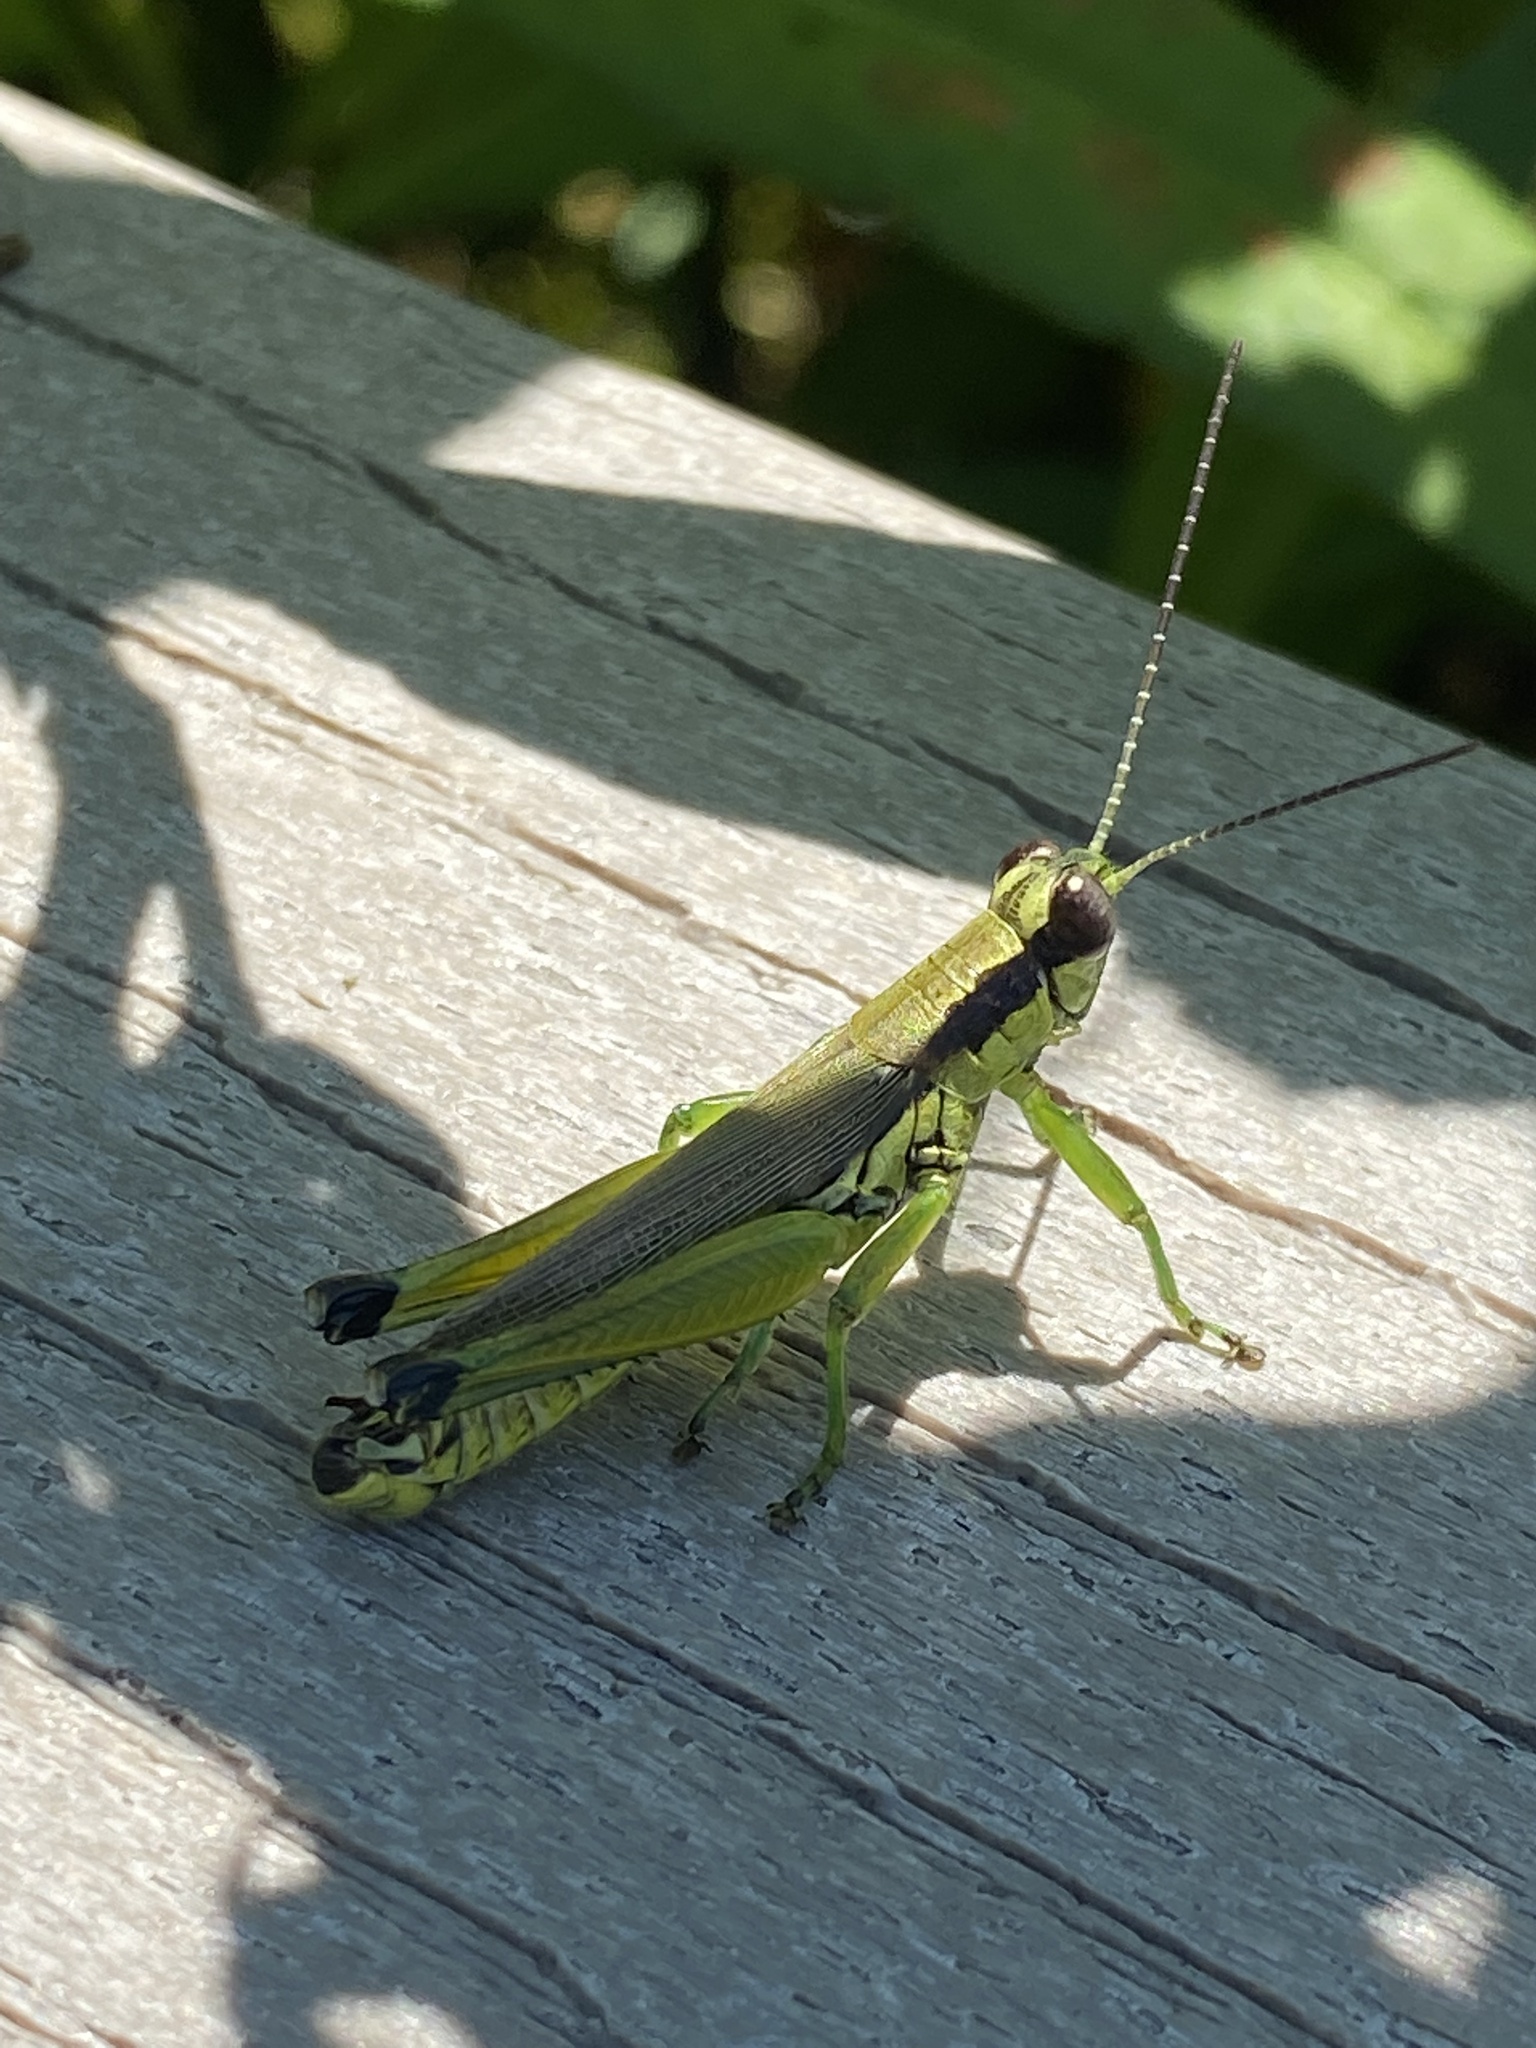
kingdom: Animalia
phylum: Arthropoda
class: Insecta
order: Orthoptera
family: Acrididae
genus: Paroxya
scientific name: Paroxya clavuligera
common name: Olive-green swamp grasshopper
